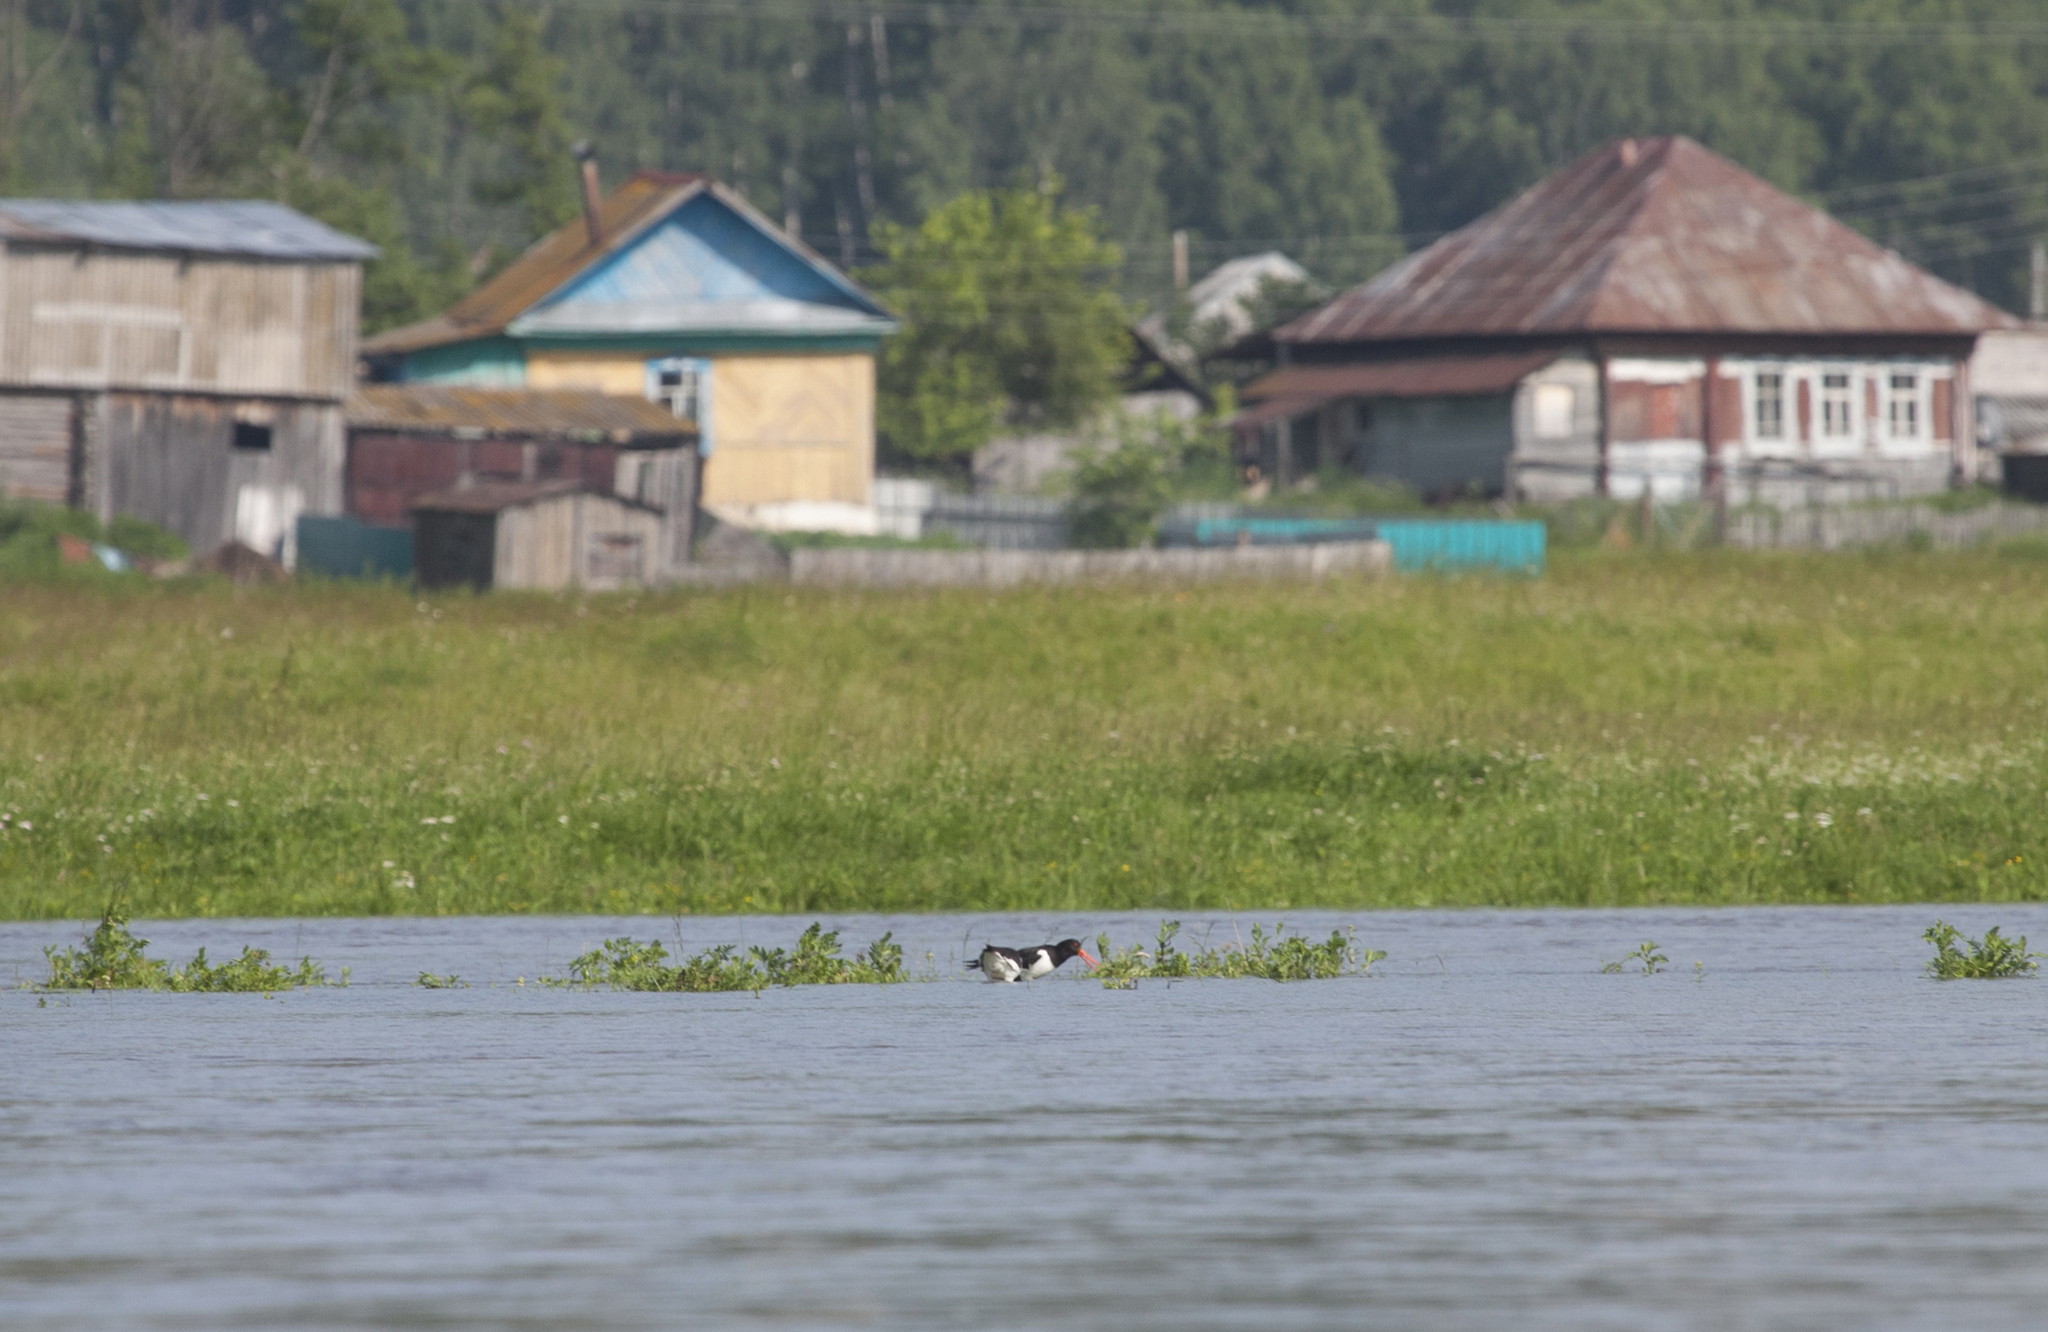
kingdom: Animalia
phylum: Chordata
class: Aves
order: Charadriiformes
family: Haematopodidae
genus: Haematopus
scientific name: Haematopus ostralegus
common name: Eurasian oystercatcher
